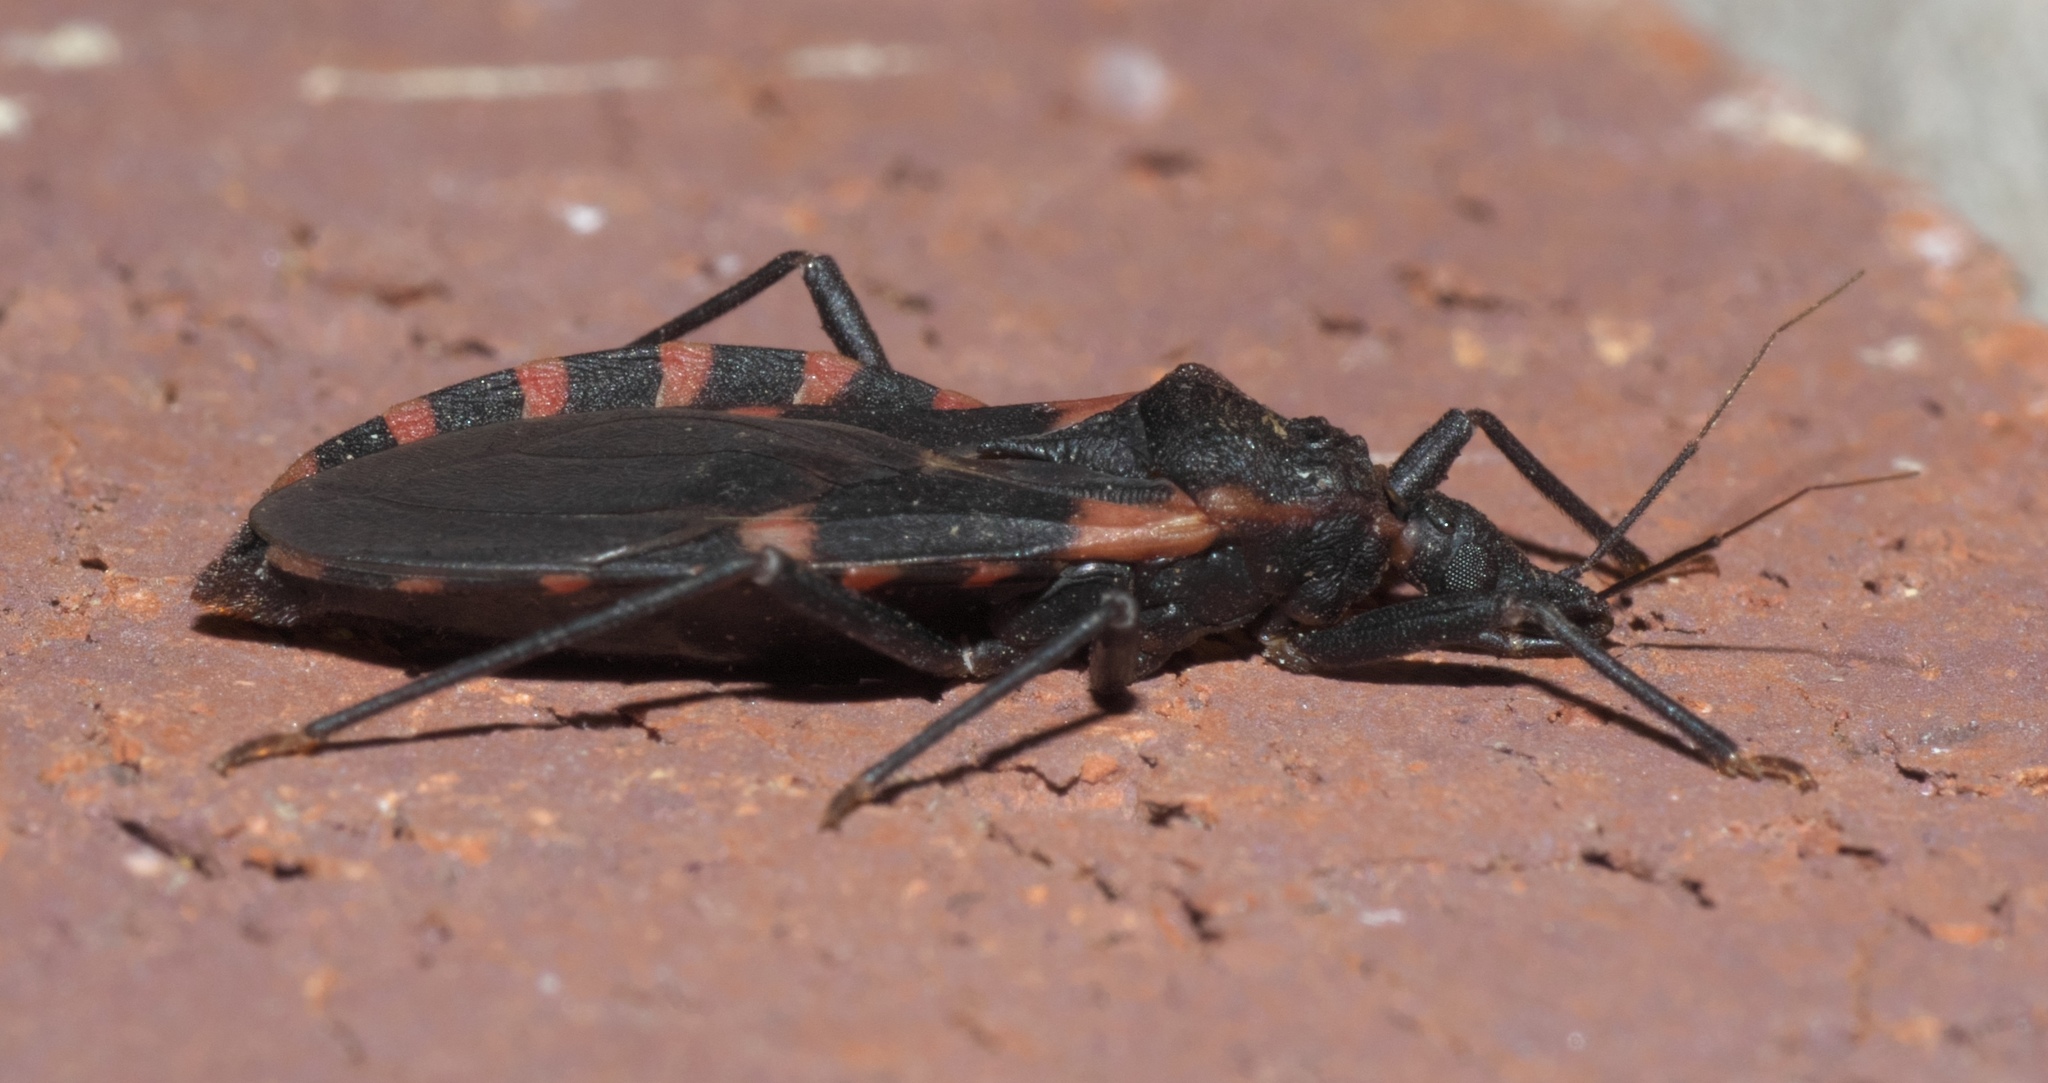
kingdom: Animalia
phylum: Arthropoda
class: Insecta
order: Hemiptera
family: Reduviidae
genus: Triatoma
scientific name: Triatoma sanguisuga
